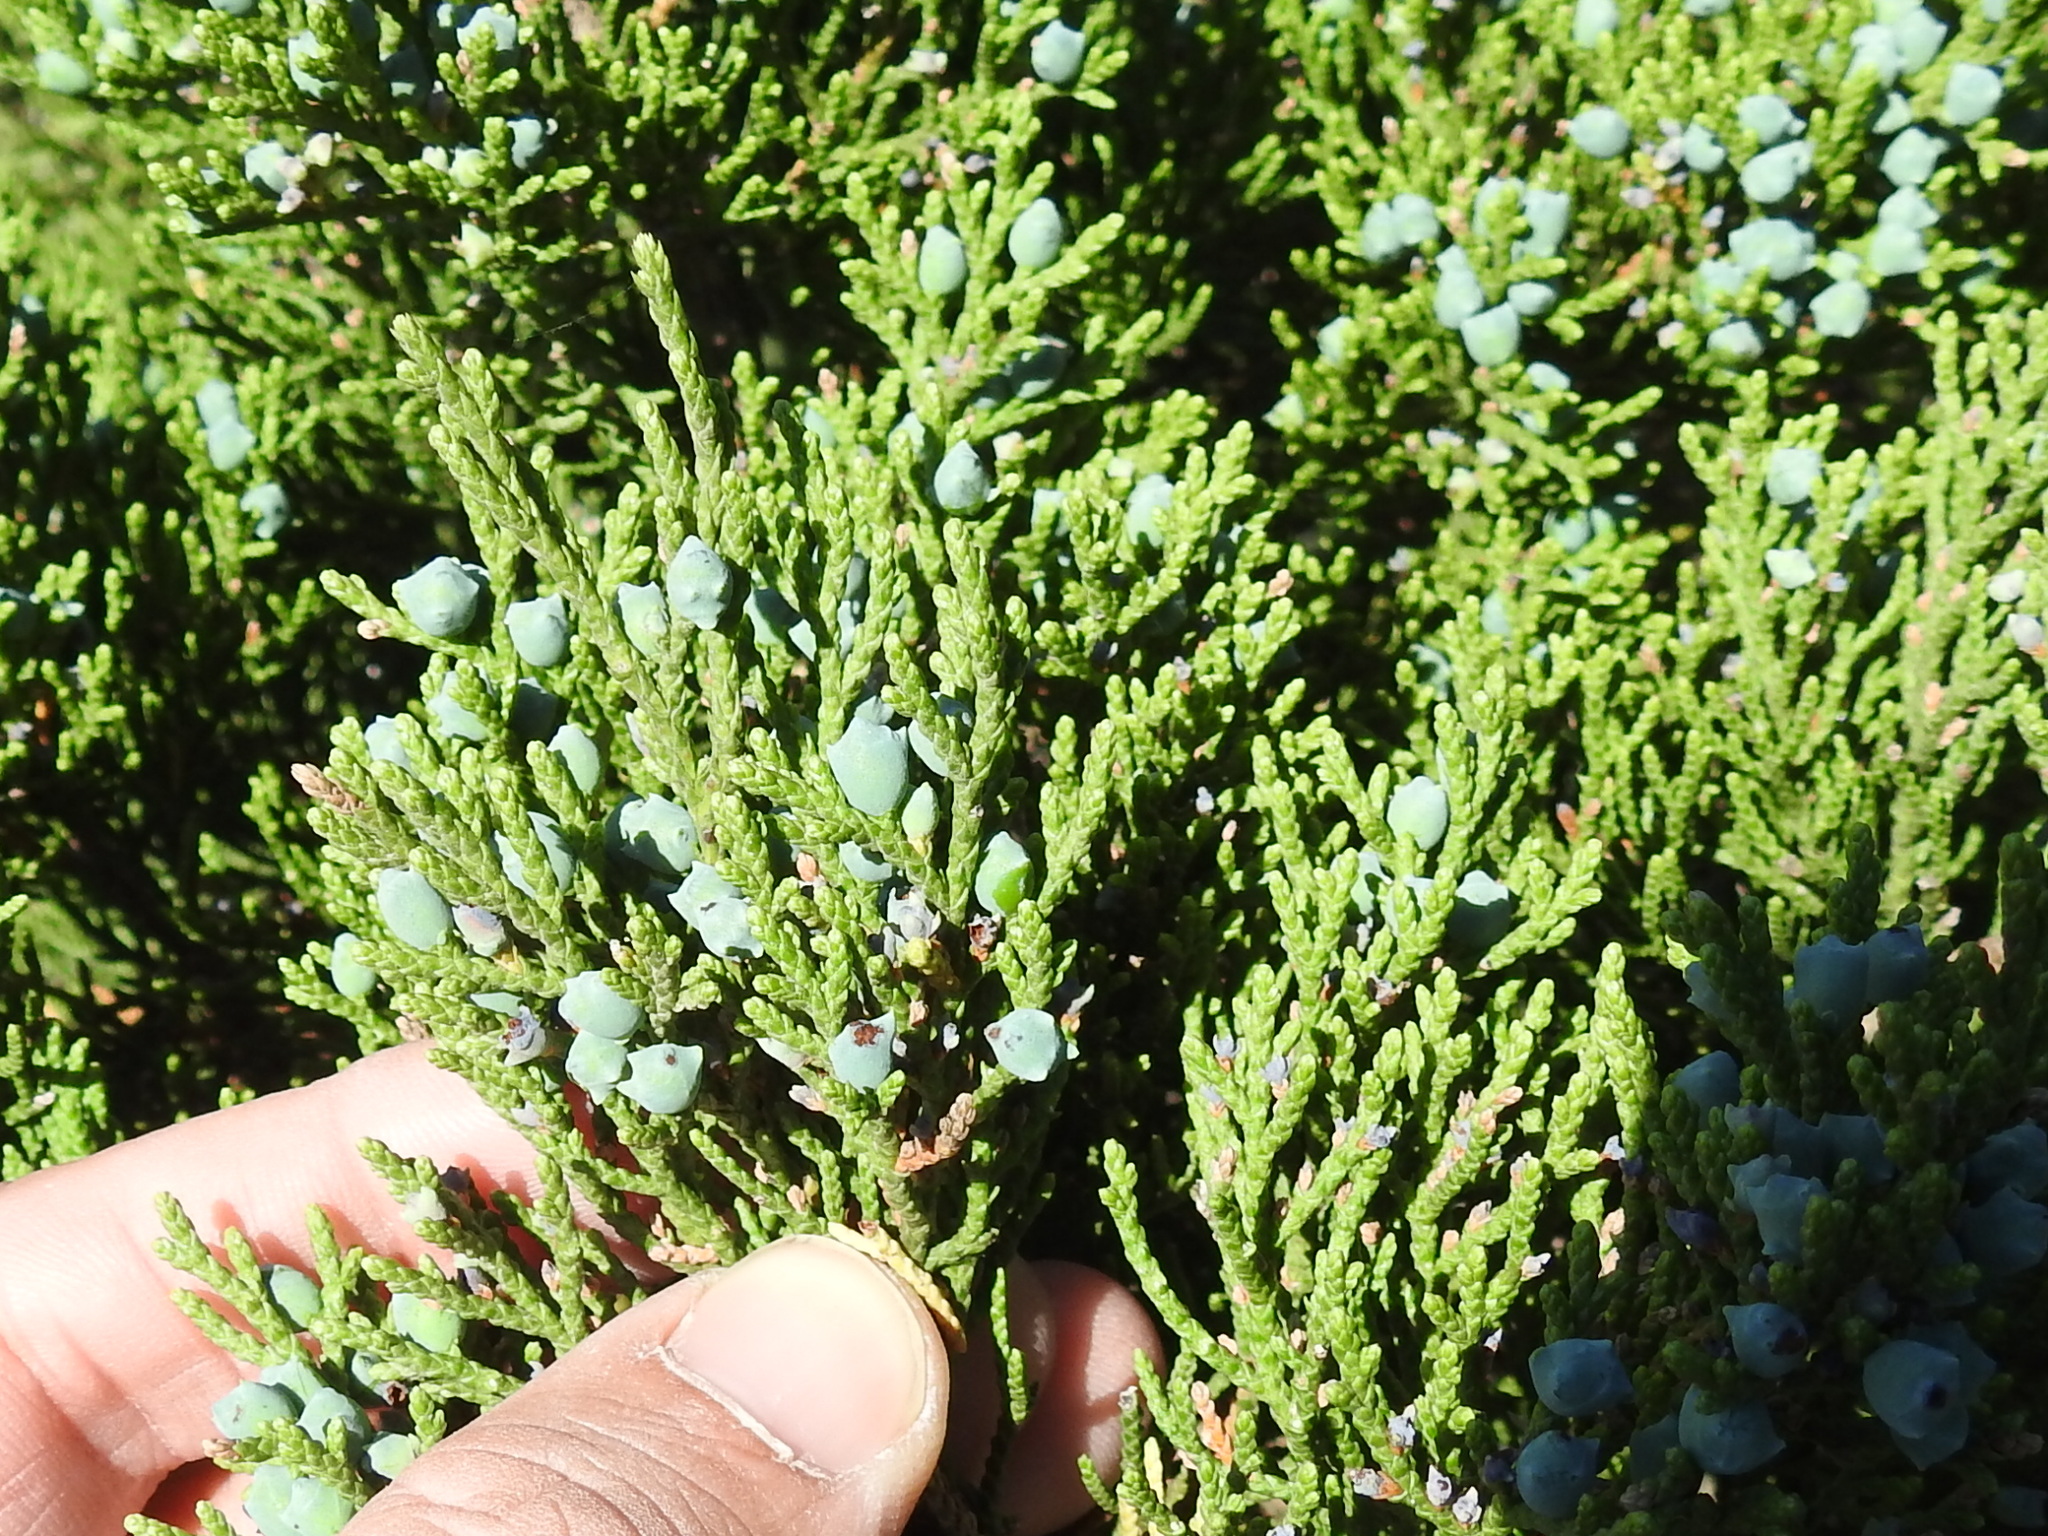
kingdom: Plantae
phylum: Tracheophyta
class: Pinopsida
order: Pinales
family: Cupressaceae
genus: Juniperus
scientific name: Juniperus ashei
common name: Mexican juniper
